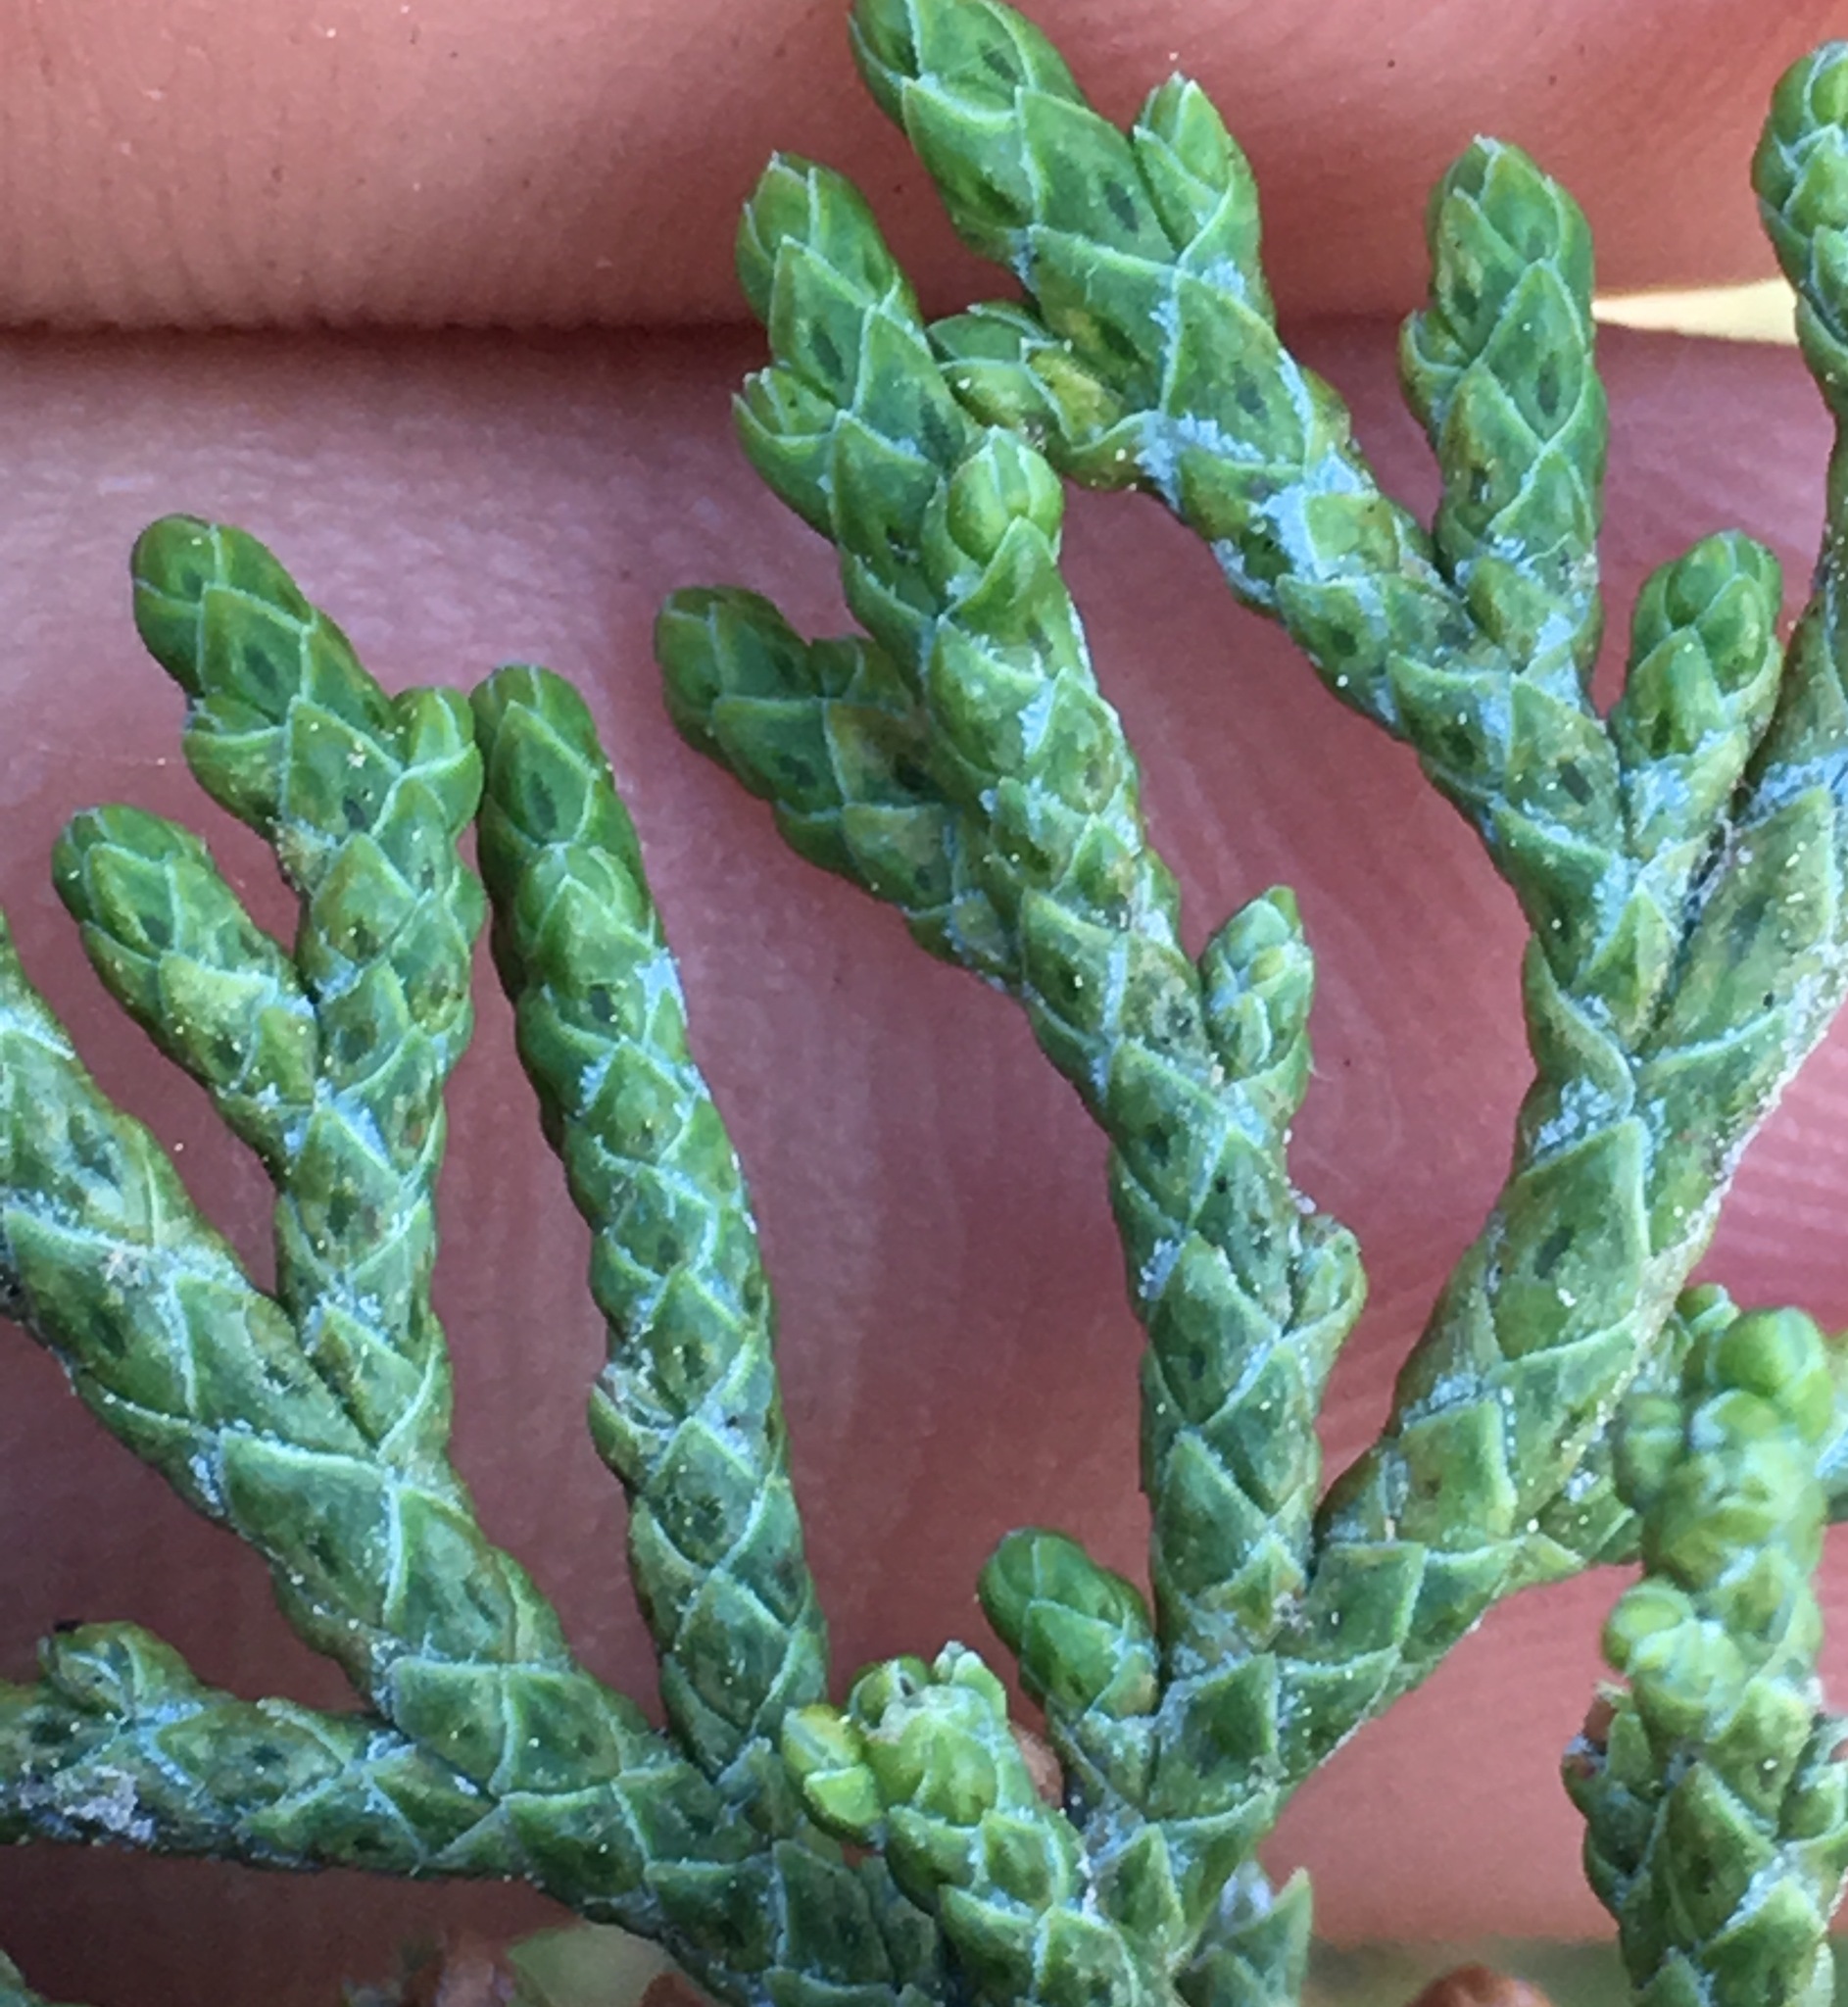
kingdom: Plantae
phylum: Tracheophyta
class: Pinopsida
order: Pinales
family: Cupressaceae
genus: Juniperus
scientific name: Juniperus occidentalis
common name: Western juniper
